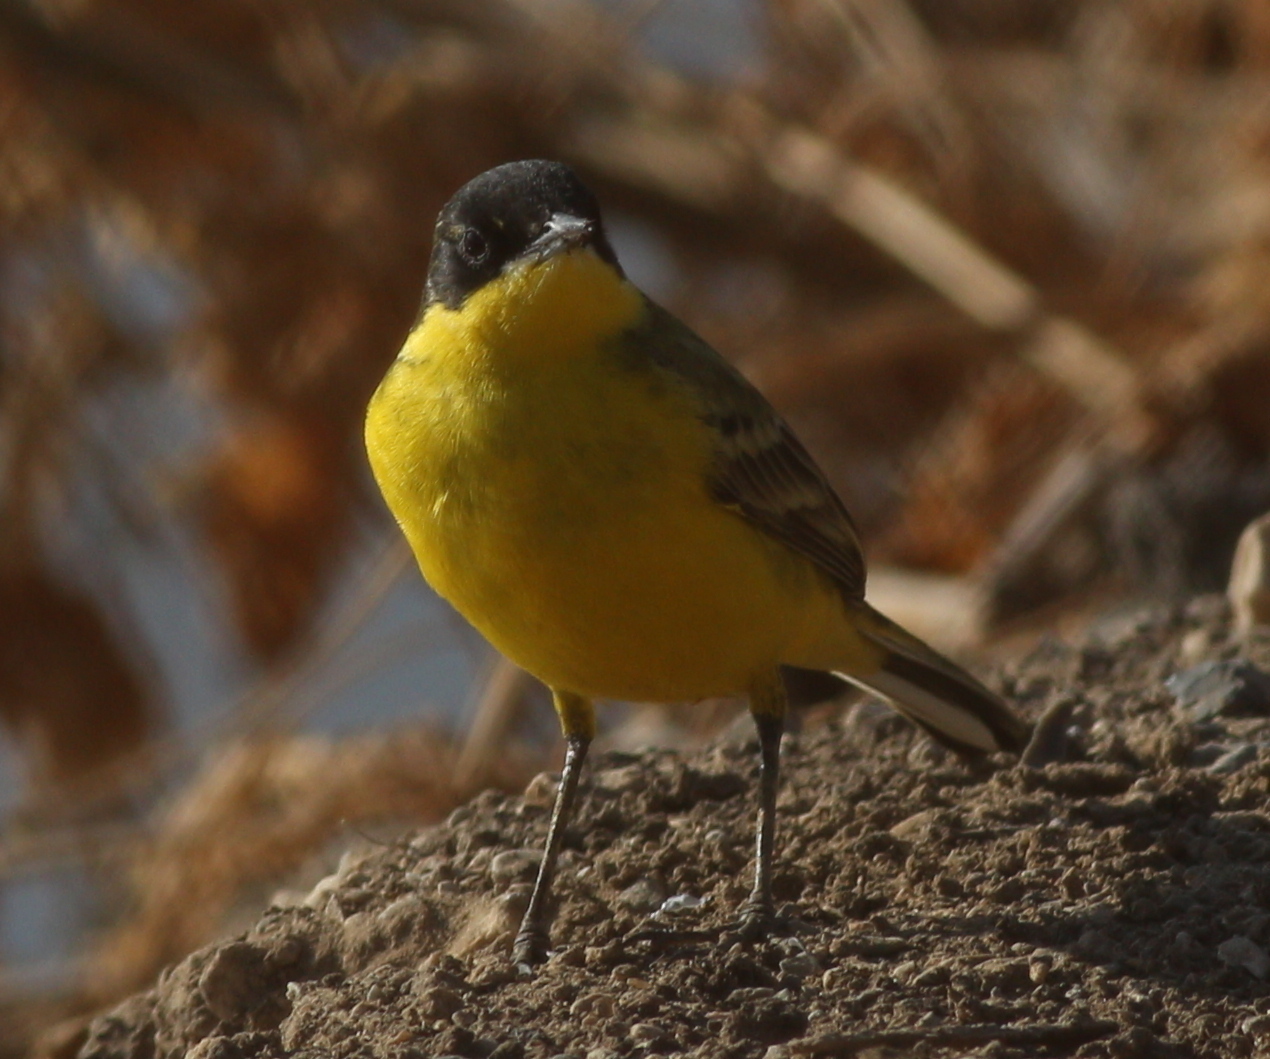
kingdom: Animalia
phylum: Chordata
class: Aves
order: Passeriformes
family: Motacillidae
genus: Motacilla
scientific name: Motacilla flava
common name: Western yellow wagtail
